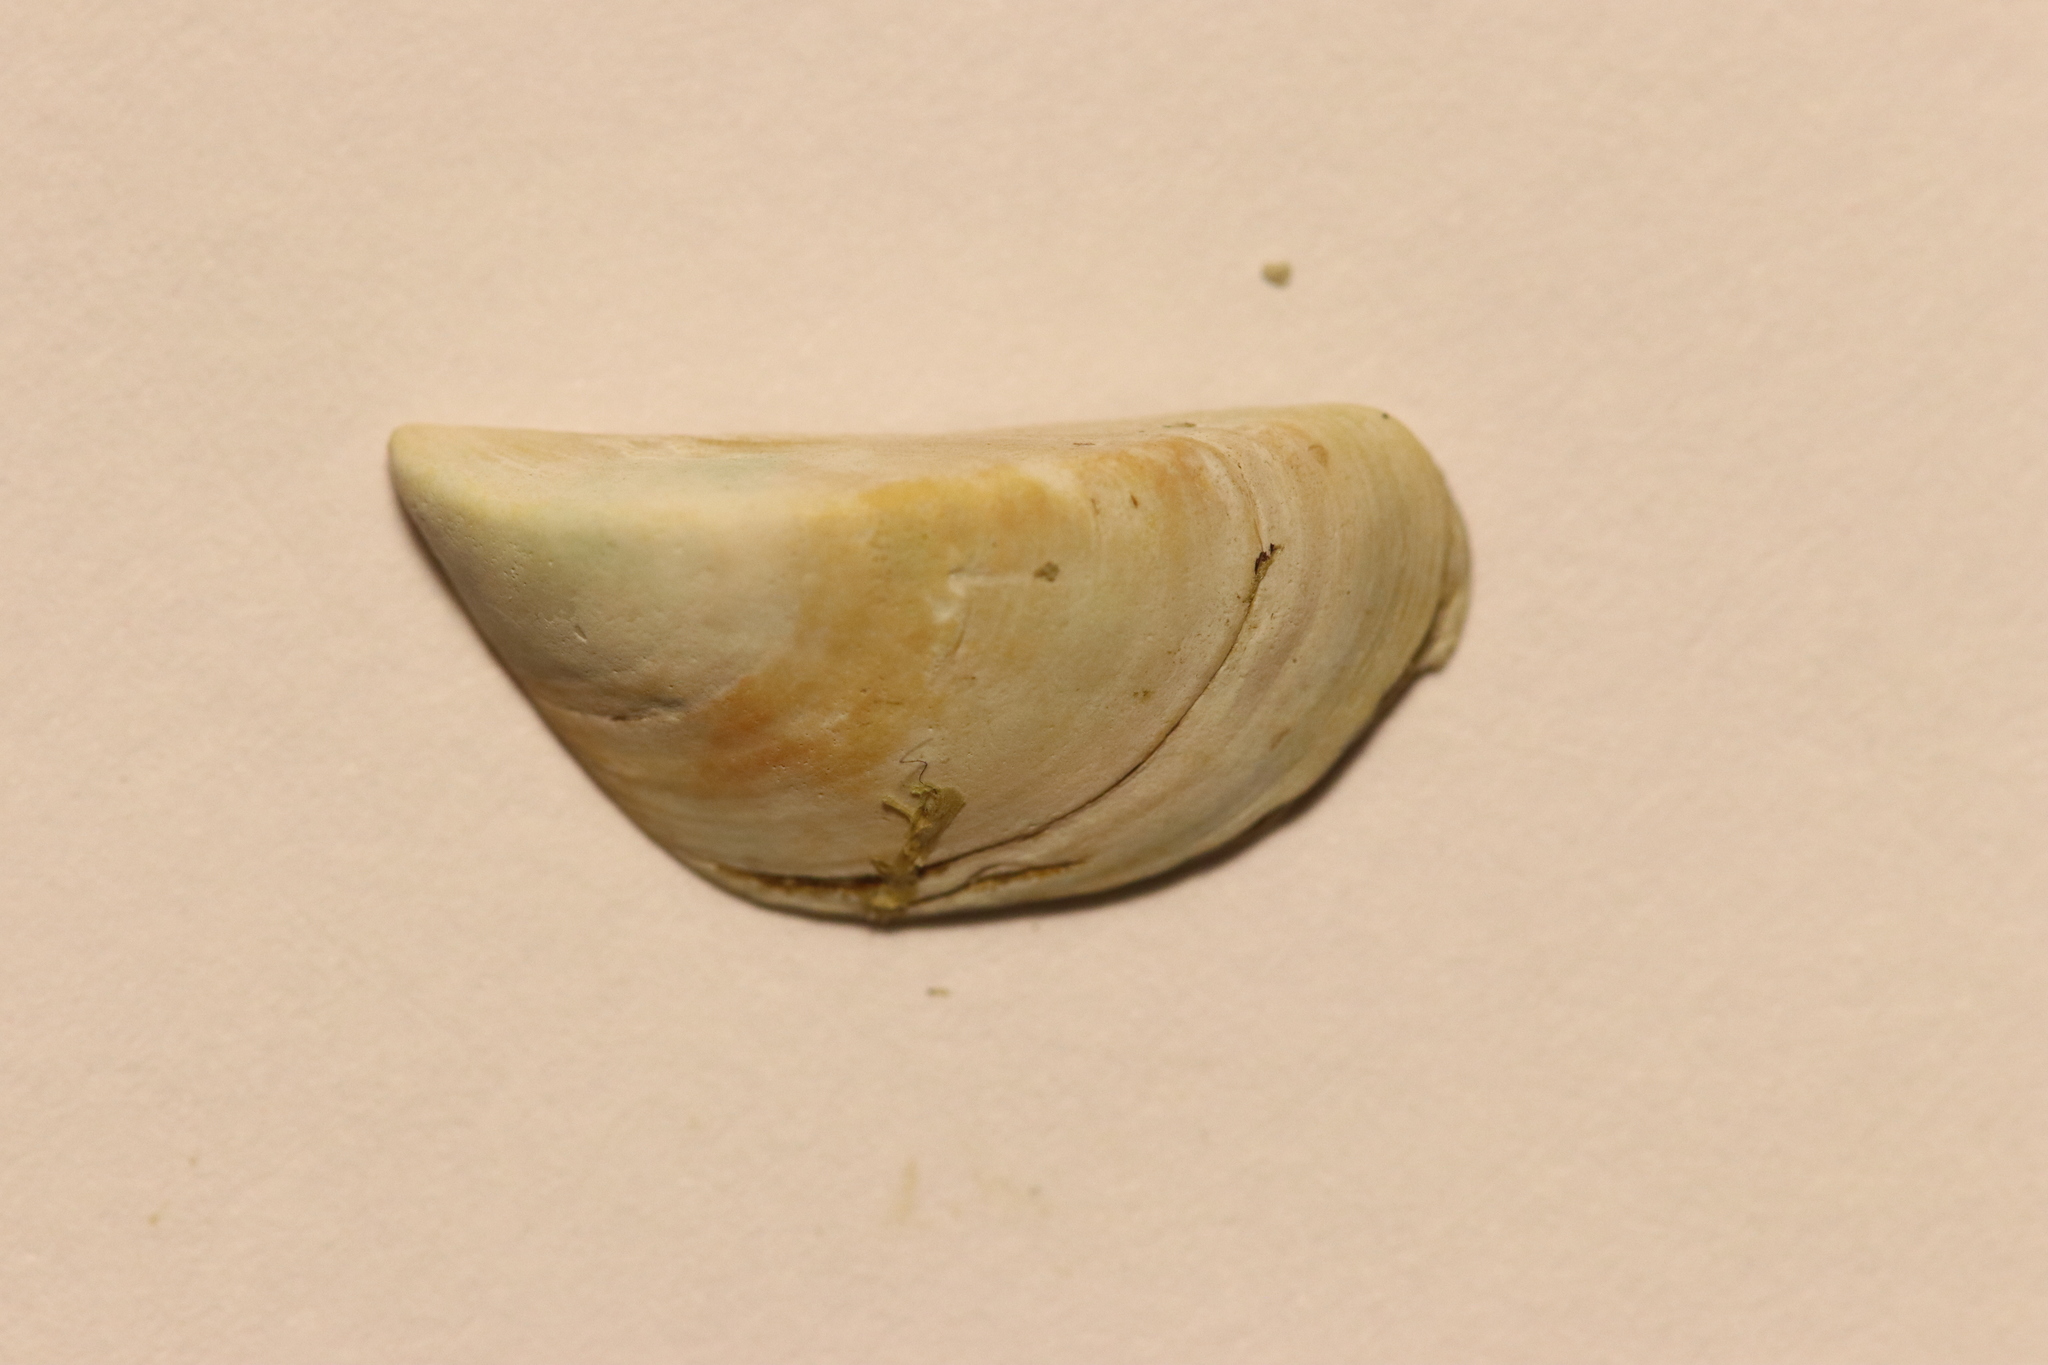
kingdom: Animalia
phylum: Mollusca
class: Bivalvia
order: Myida
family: Dreissenidae
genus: Dreissena
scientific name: Dreissena polymorpha
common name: Zebra mussel
